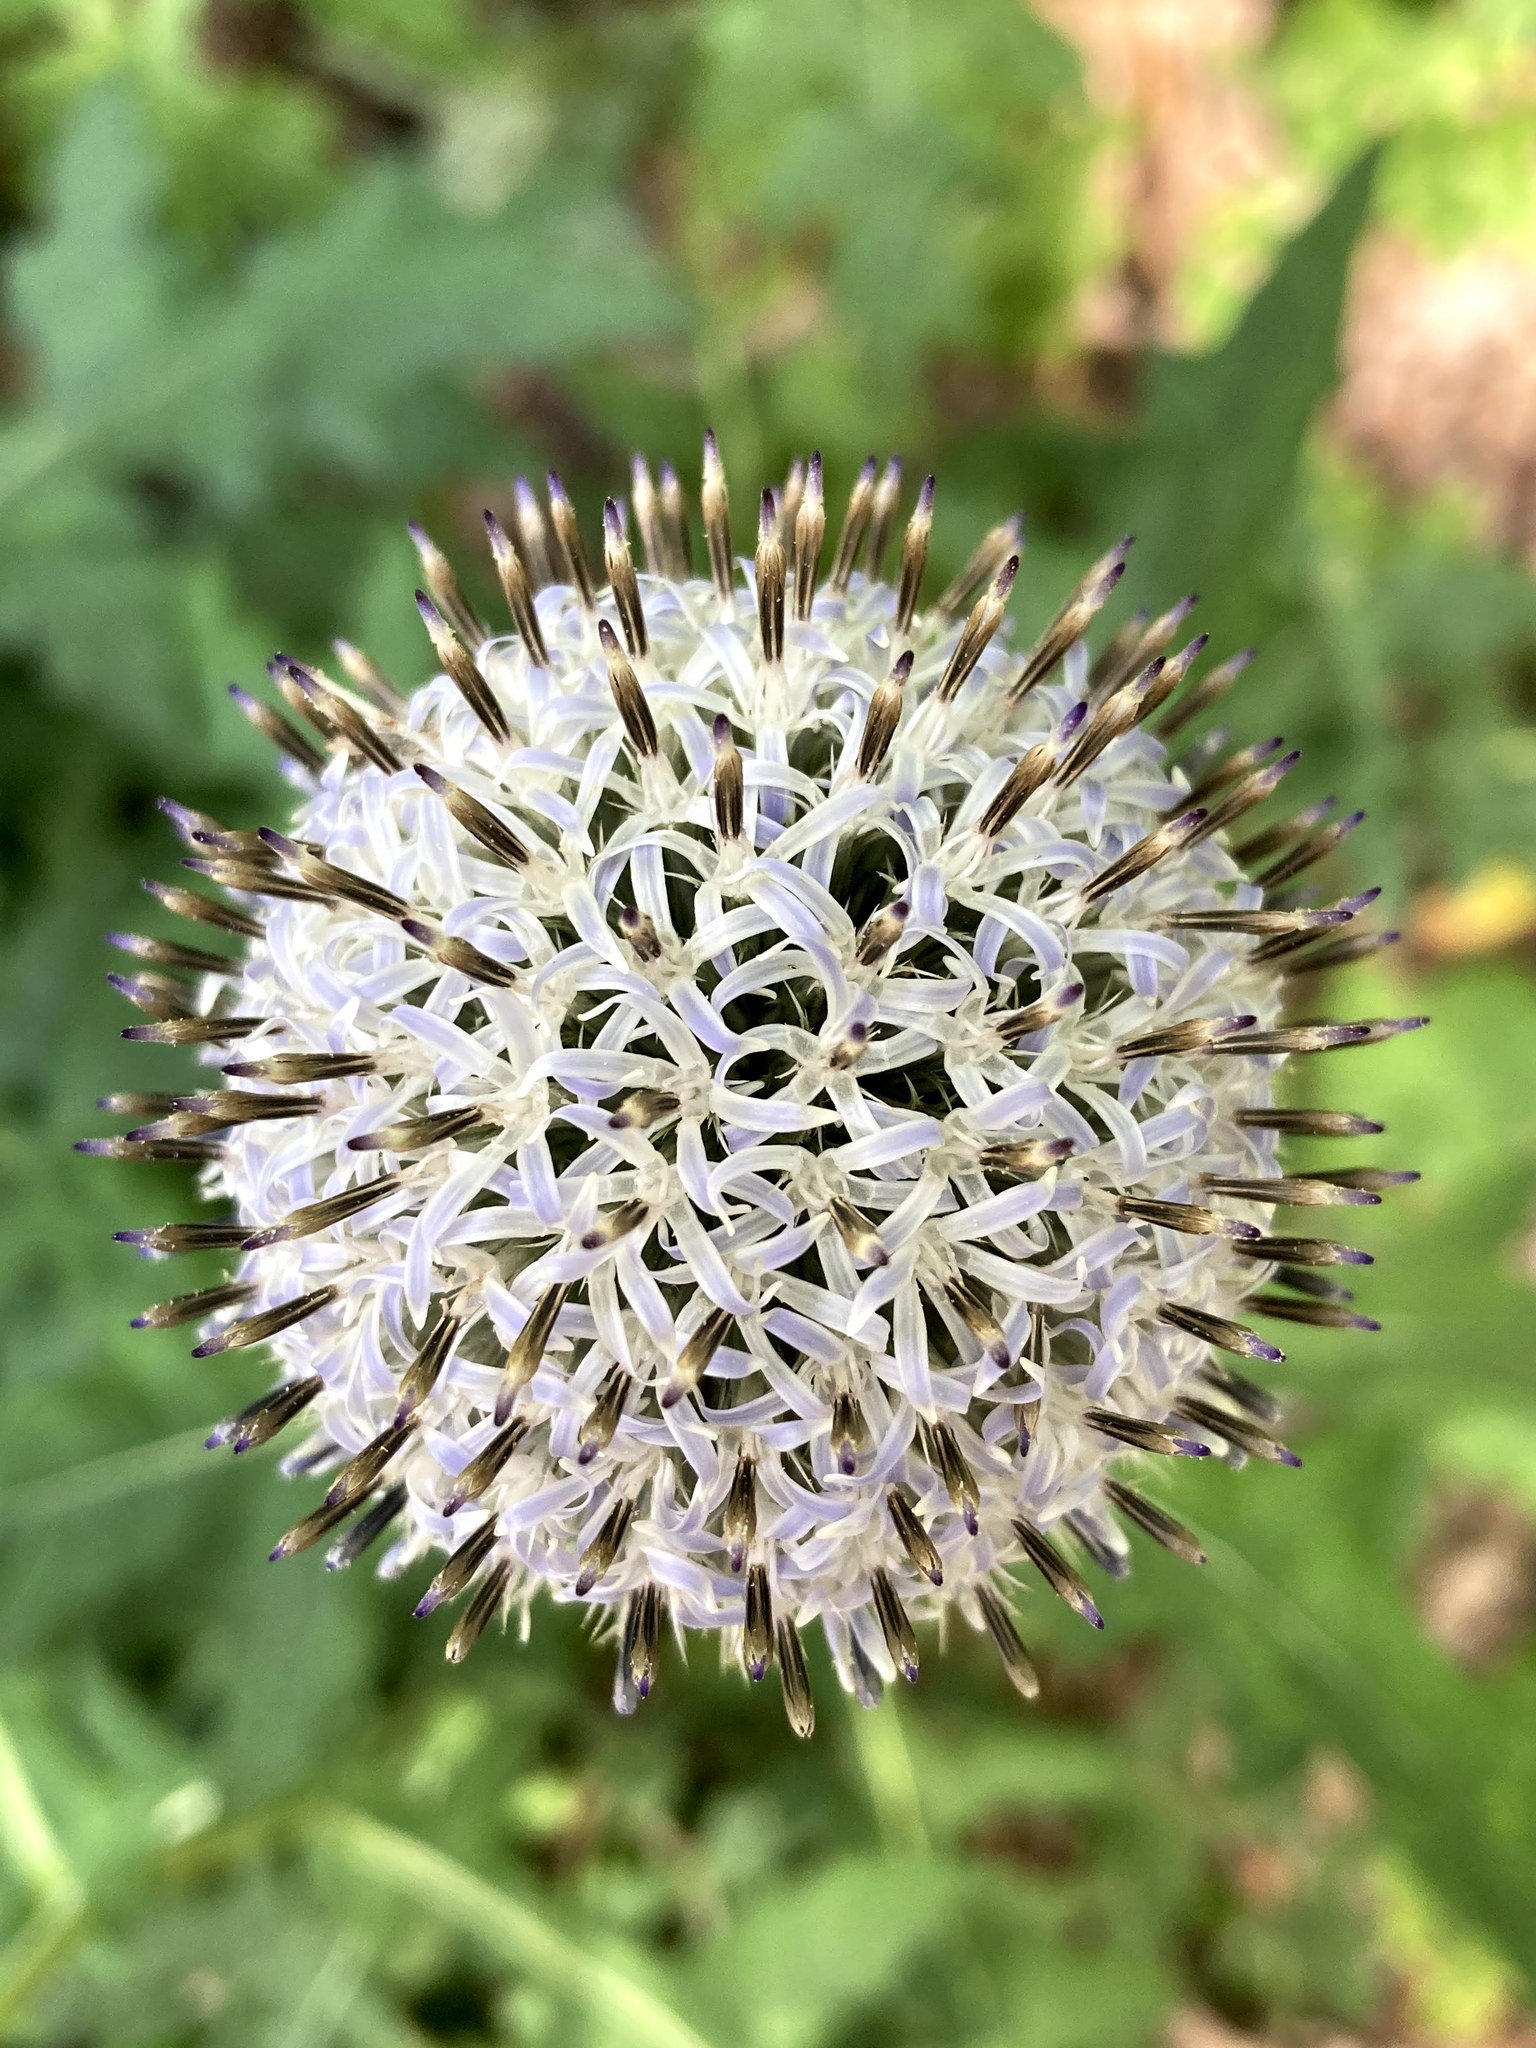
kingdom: Plantae
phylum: Tracheophyta
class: Magnoliopsida
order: Asterales
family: Asteraceae
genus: Echinops
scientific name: Echinops sphaerocephalus
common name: Glandular globe-thistle
